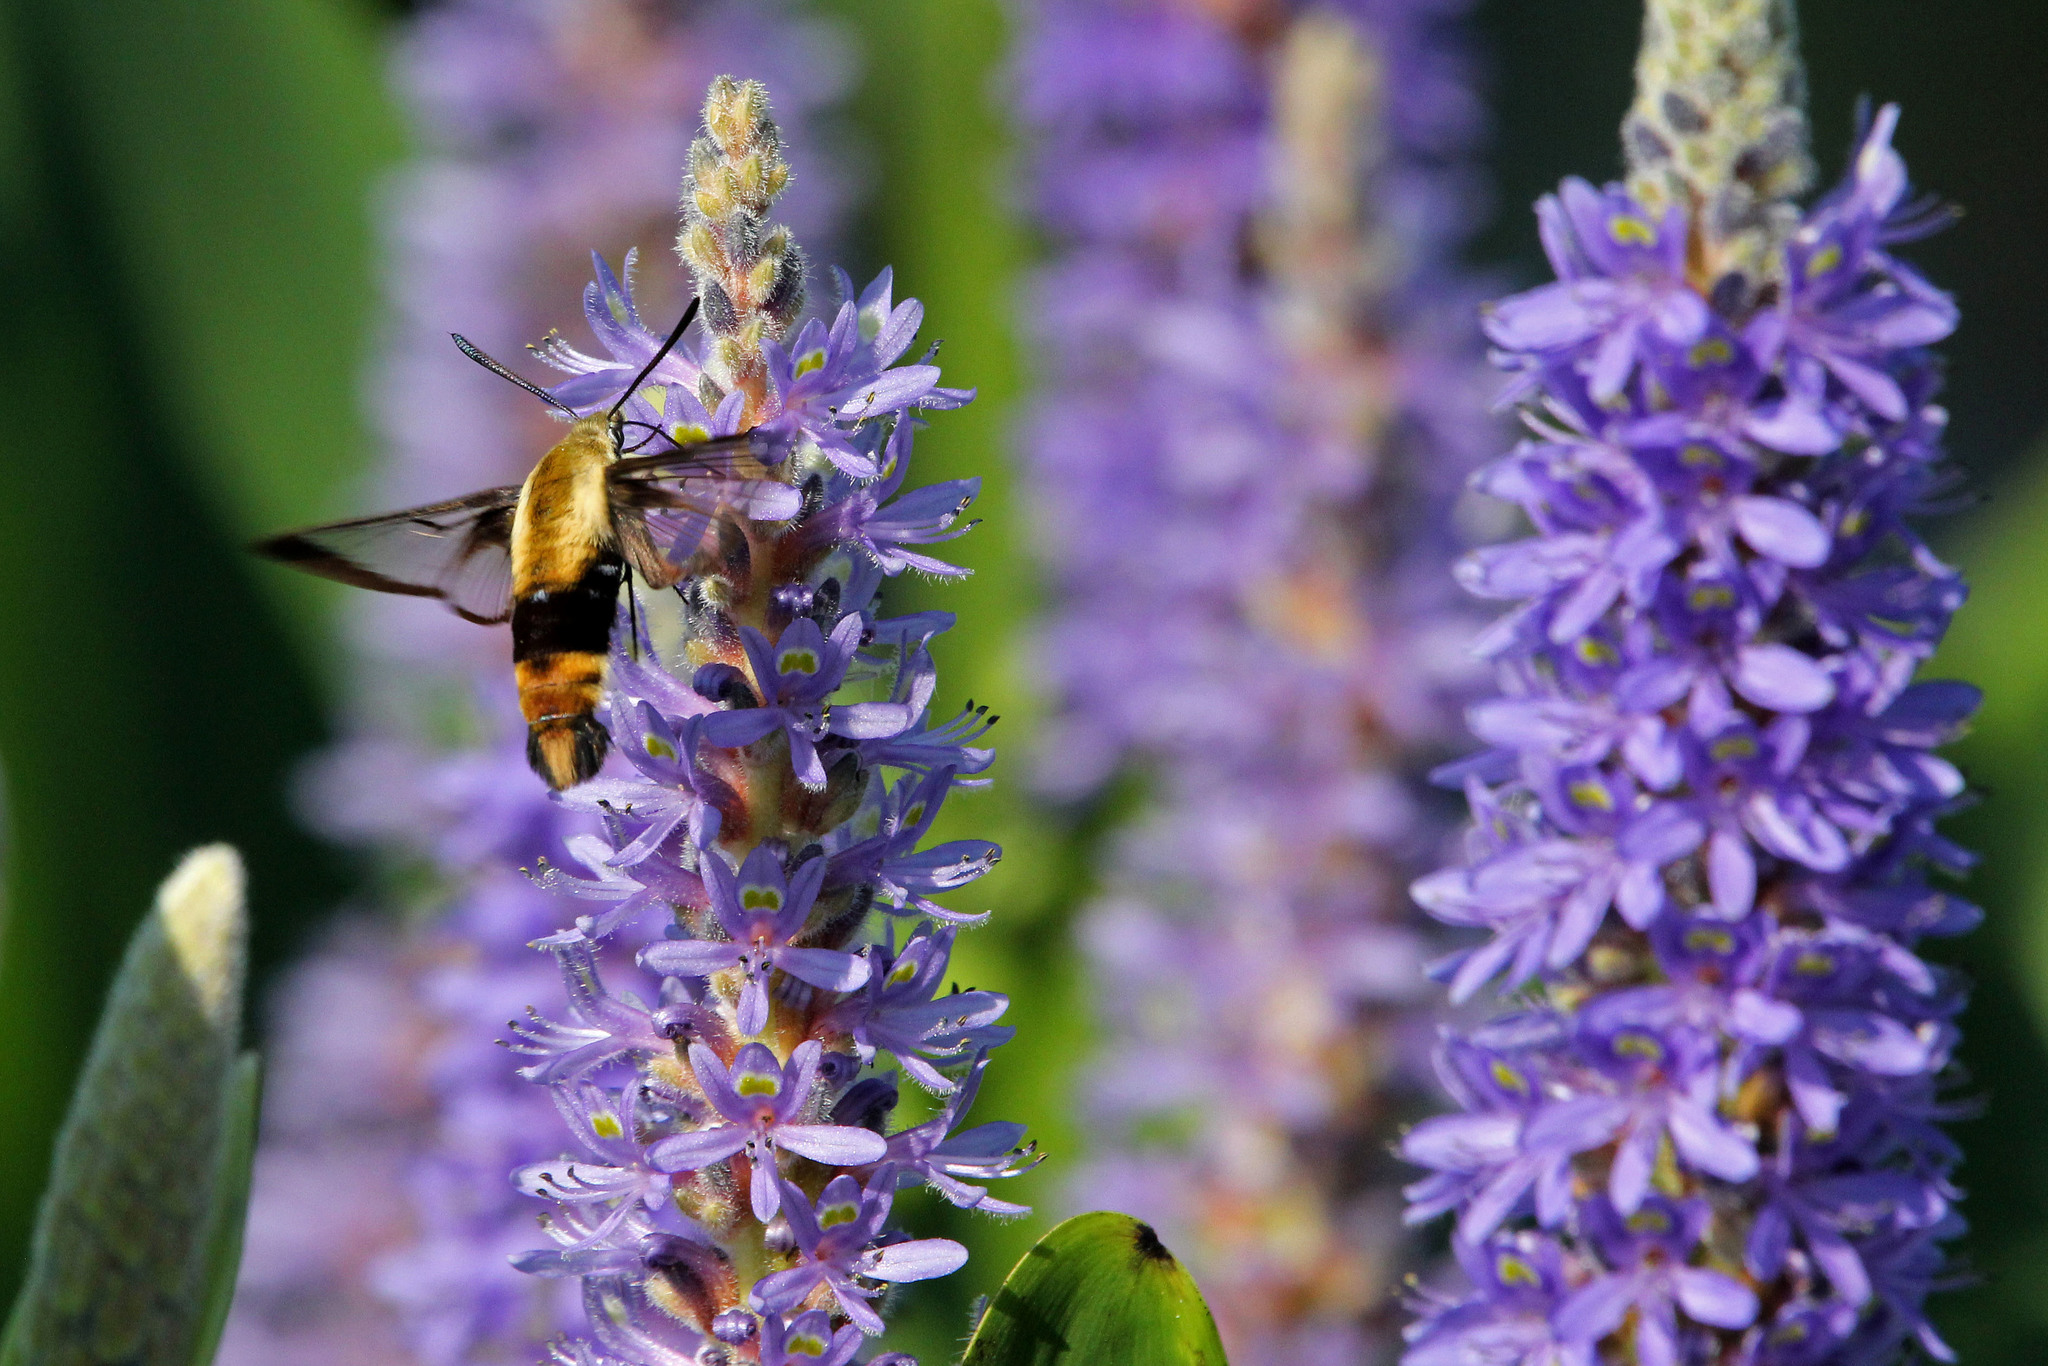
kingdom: Animalia
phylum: Arthropoda
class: Insecta
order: Lepidoptera
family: Sphingidae
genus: Hemaris
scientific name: Hemaris diffinis
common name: Bumblebee moth
